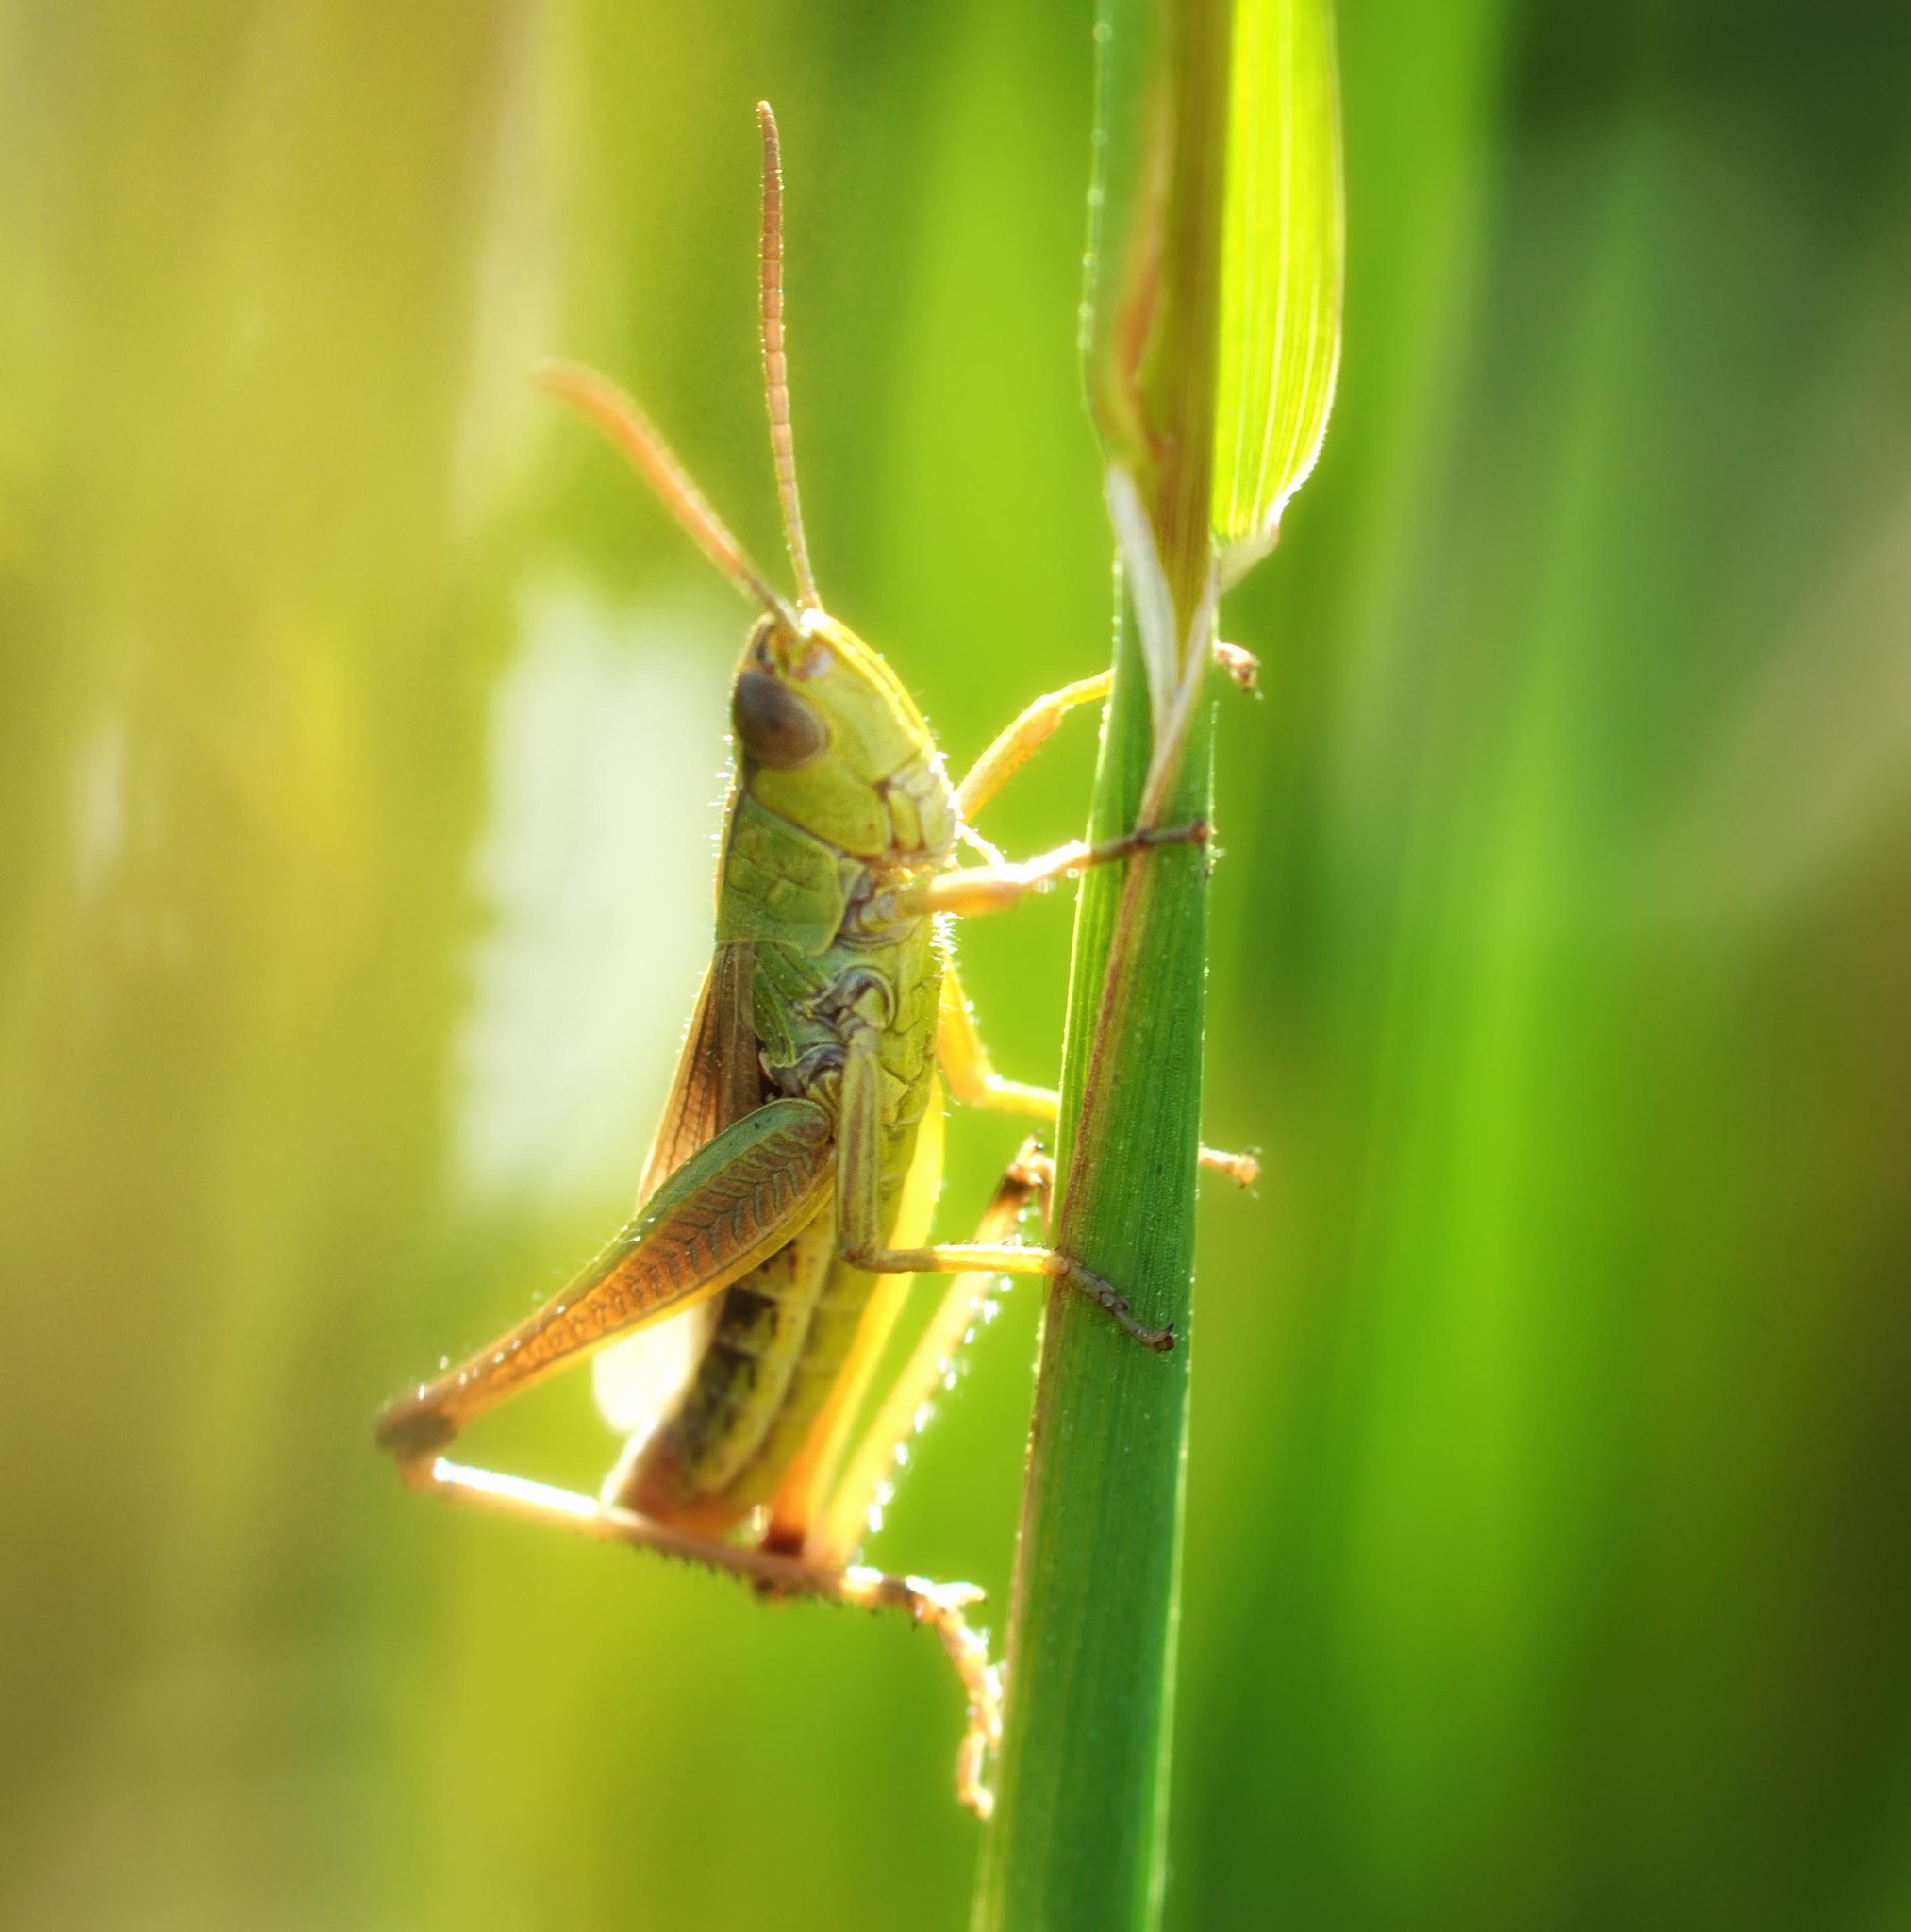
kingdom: Animalia
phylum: Arthropoda
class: Insecta
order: Orthoptera
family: Acrididae
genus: Pseudochorthippus
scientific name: Pseudochorthippus parallelus
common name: Meadow grasshopper
